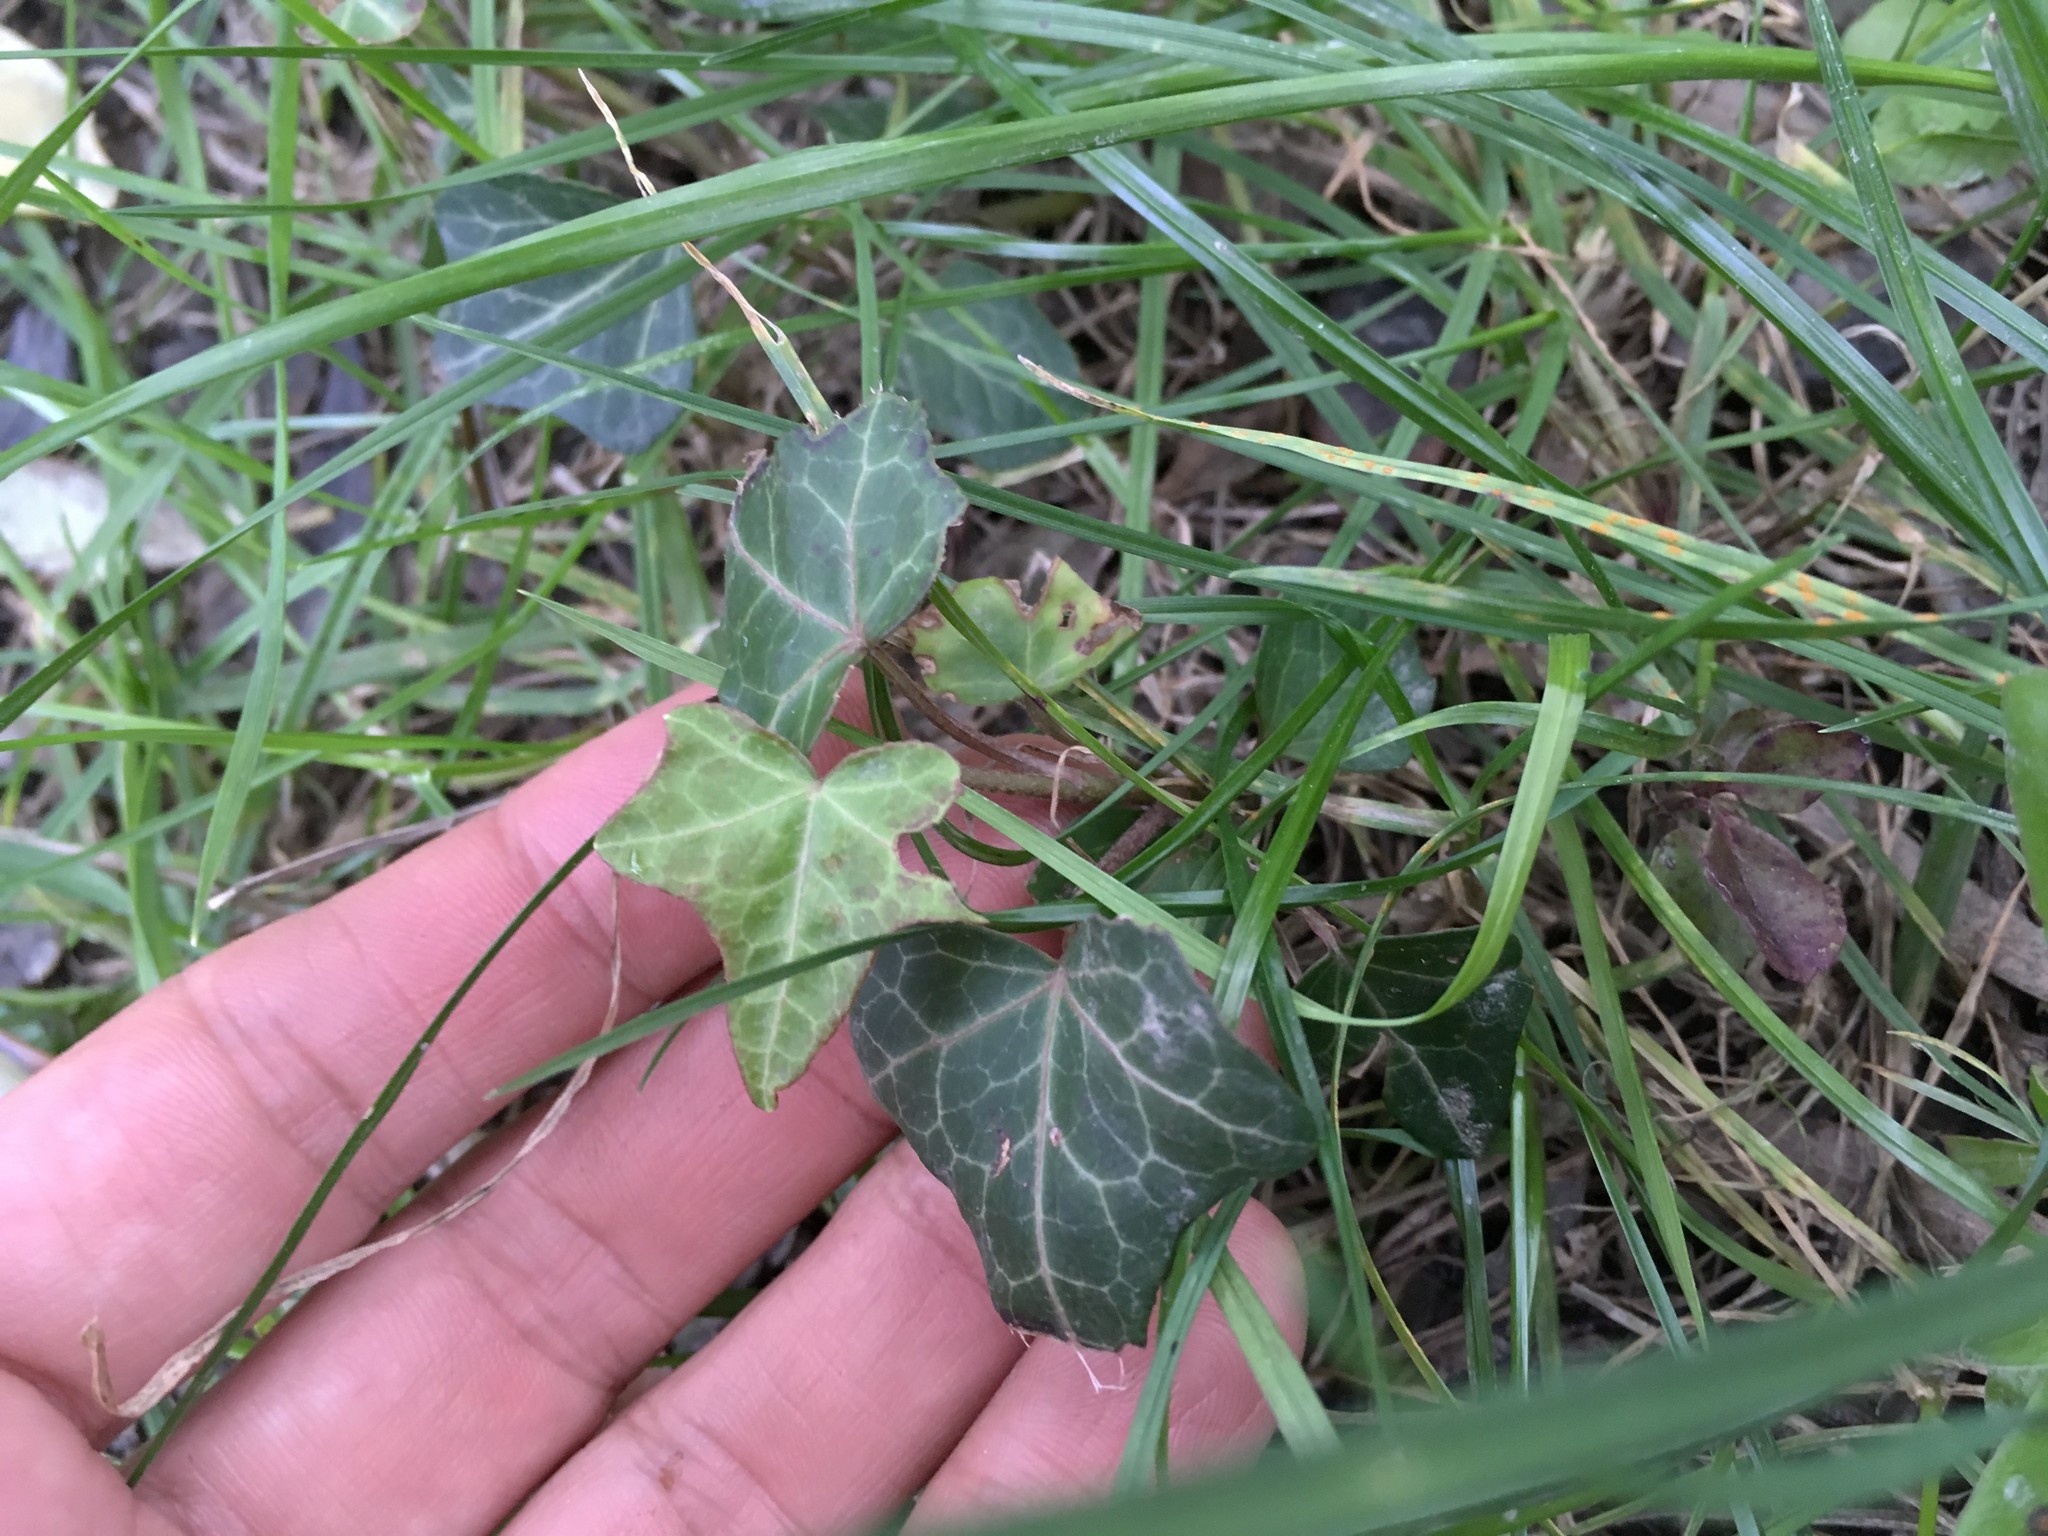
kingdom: Plantae
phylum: Tracheophyta
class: Magnoliopsida
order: Apiales
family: Araliaceae
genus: Hedera
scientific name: Hedera helix
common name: Ivy
